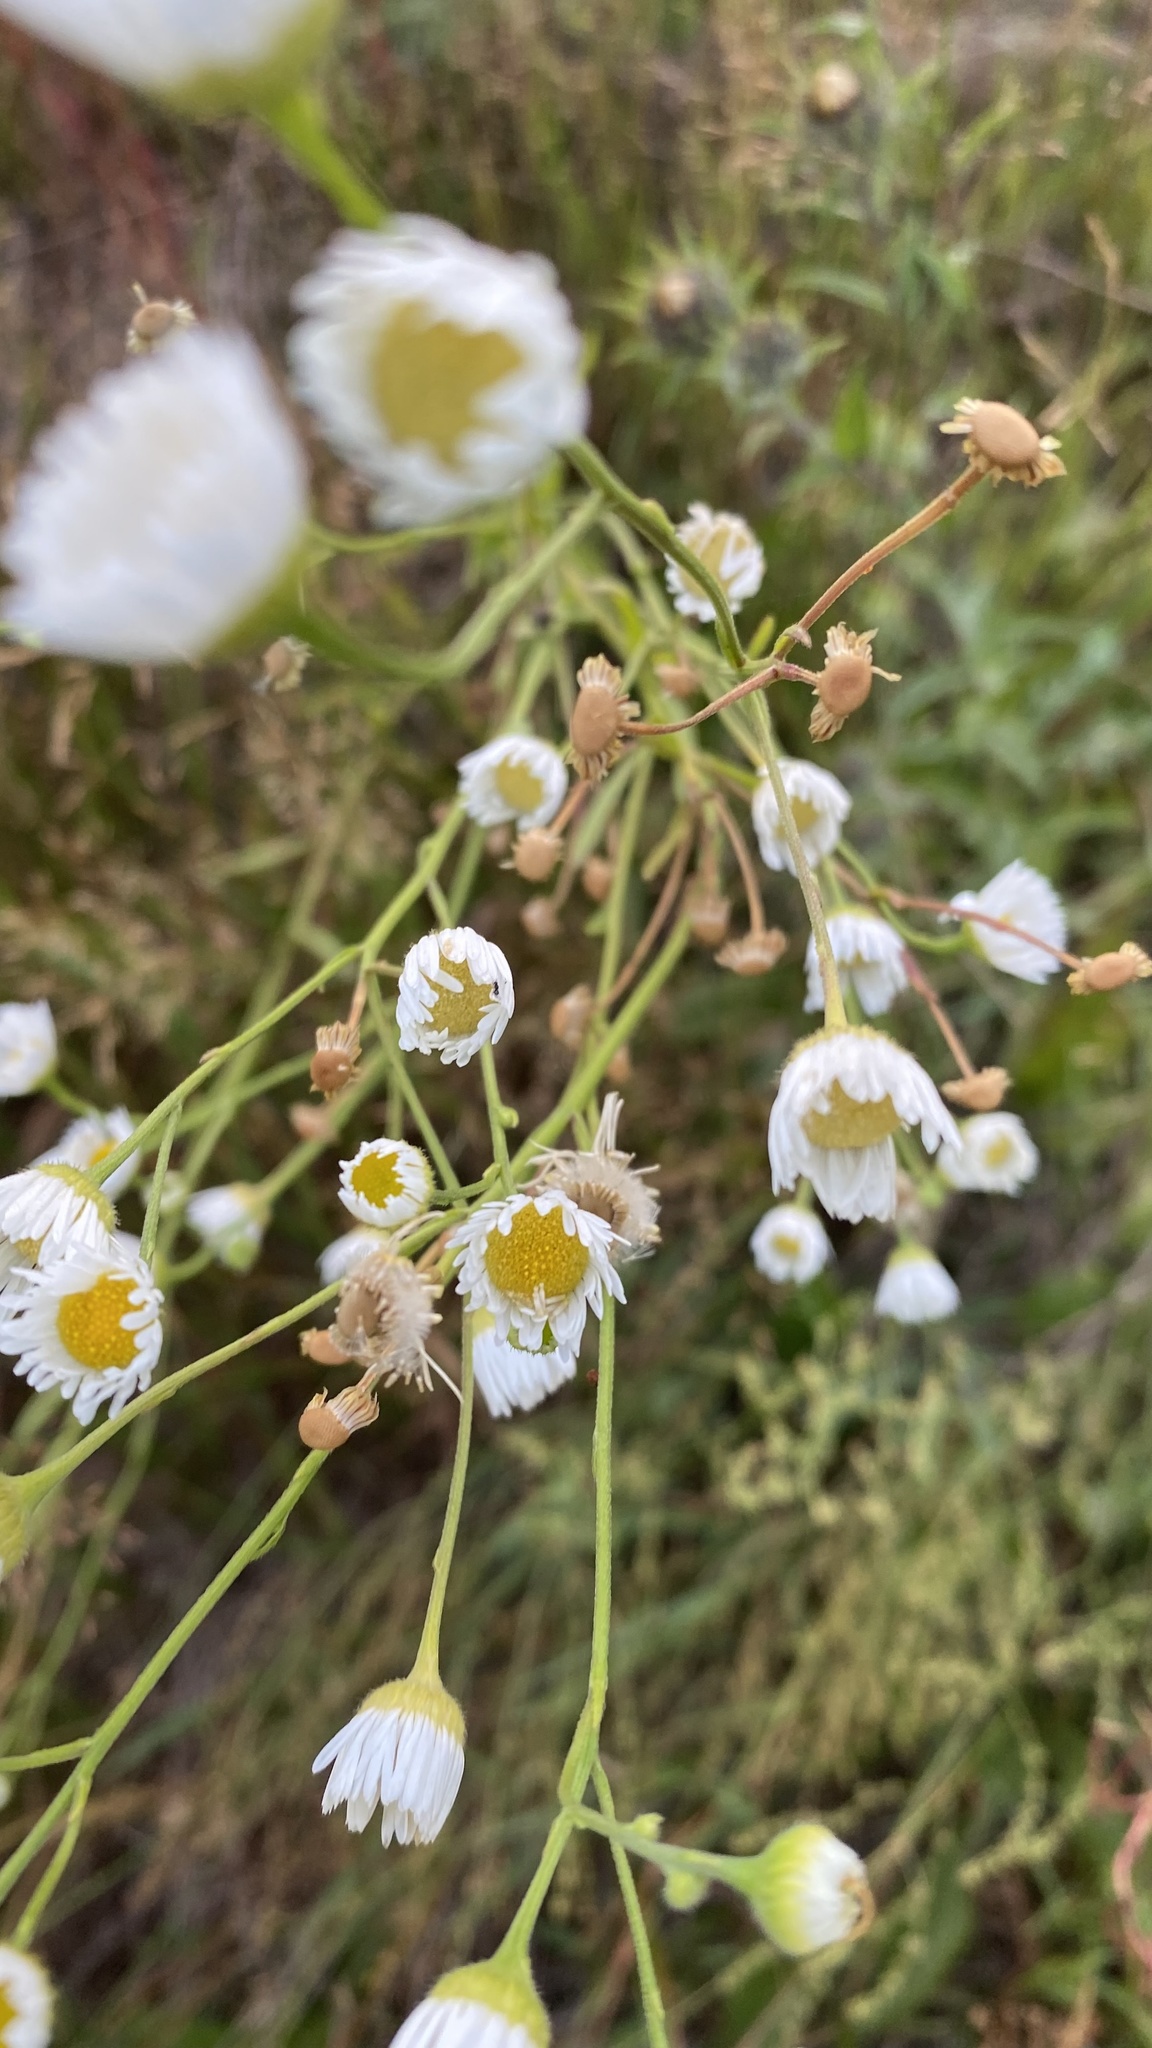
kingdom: Plantae
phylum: Tracheophyta
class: Magnoliopsida
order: Asterales
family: Asteraceae
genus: Erigeron
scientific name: Erigeron strigosus
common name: Common eastern fleabane
